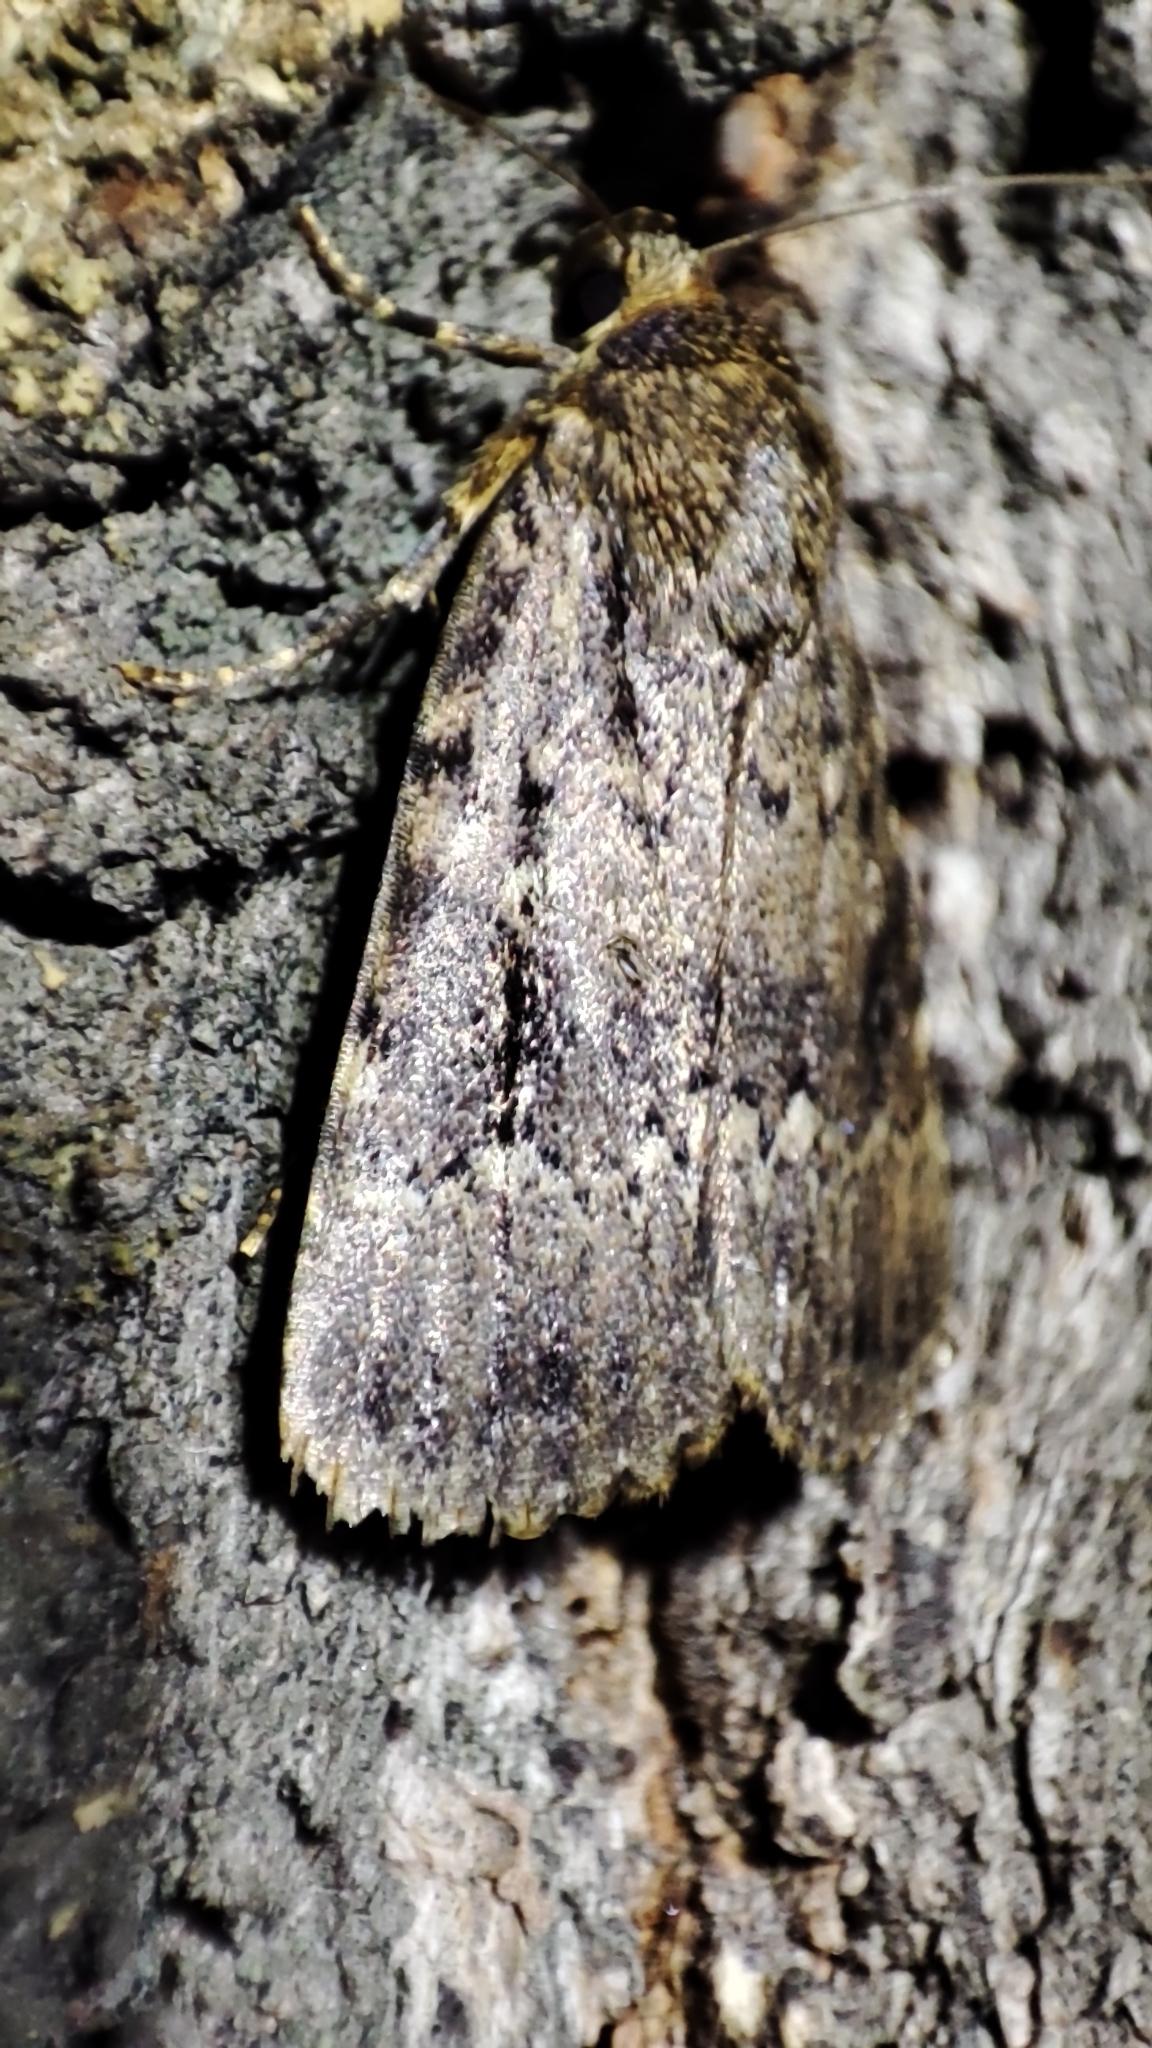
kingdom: Animalia
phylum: Arthropoda
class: Insecta
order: Lepidoptera
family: Noctuidae
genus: Amphipyra
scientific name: Amphipyra pyramidea
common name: Copper underwing
